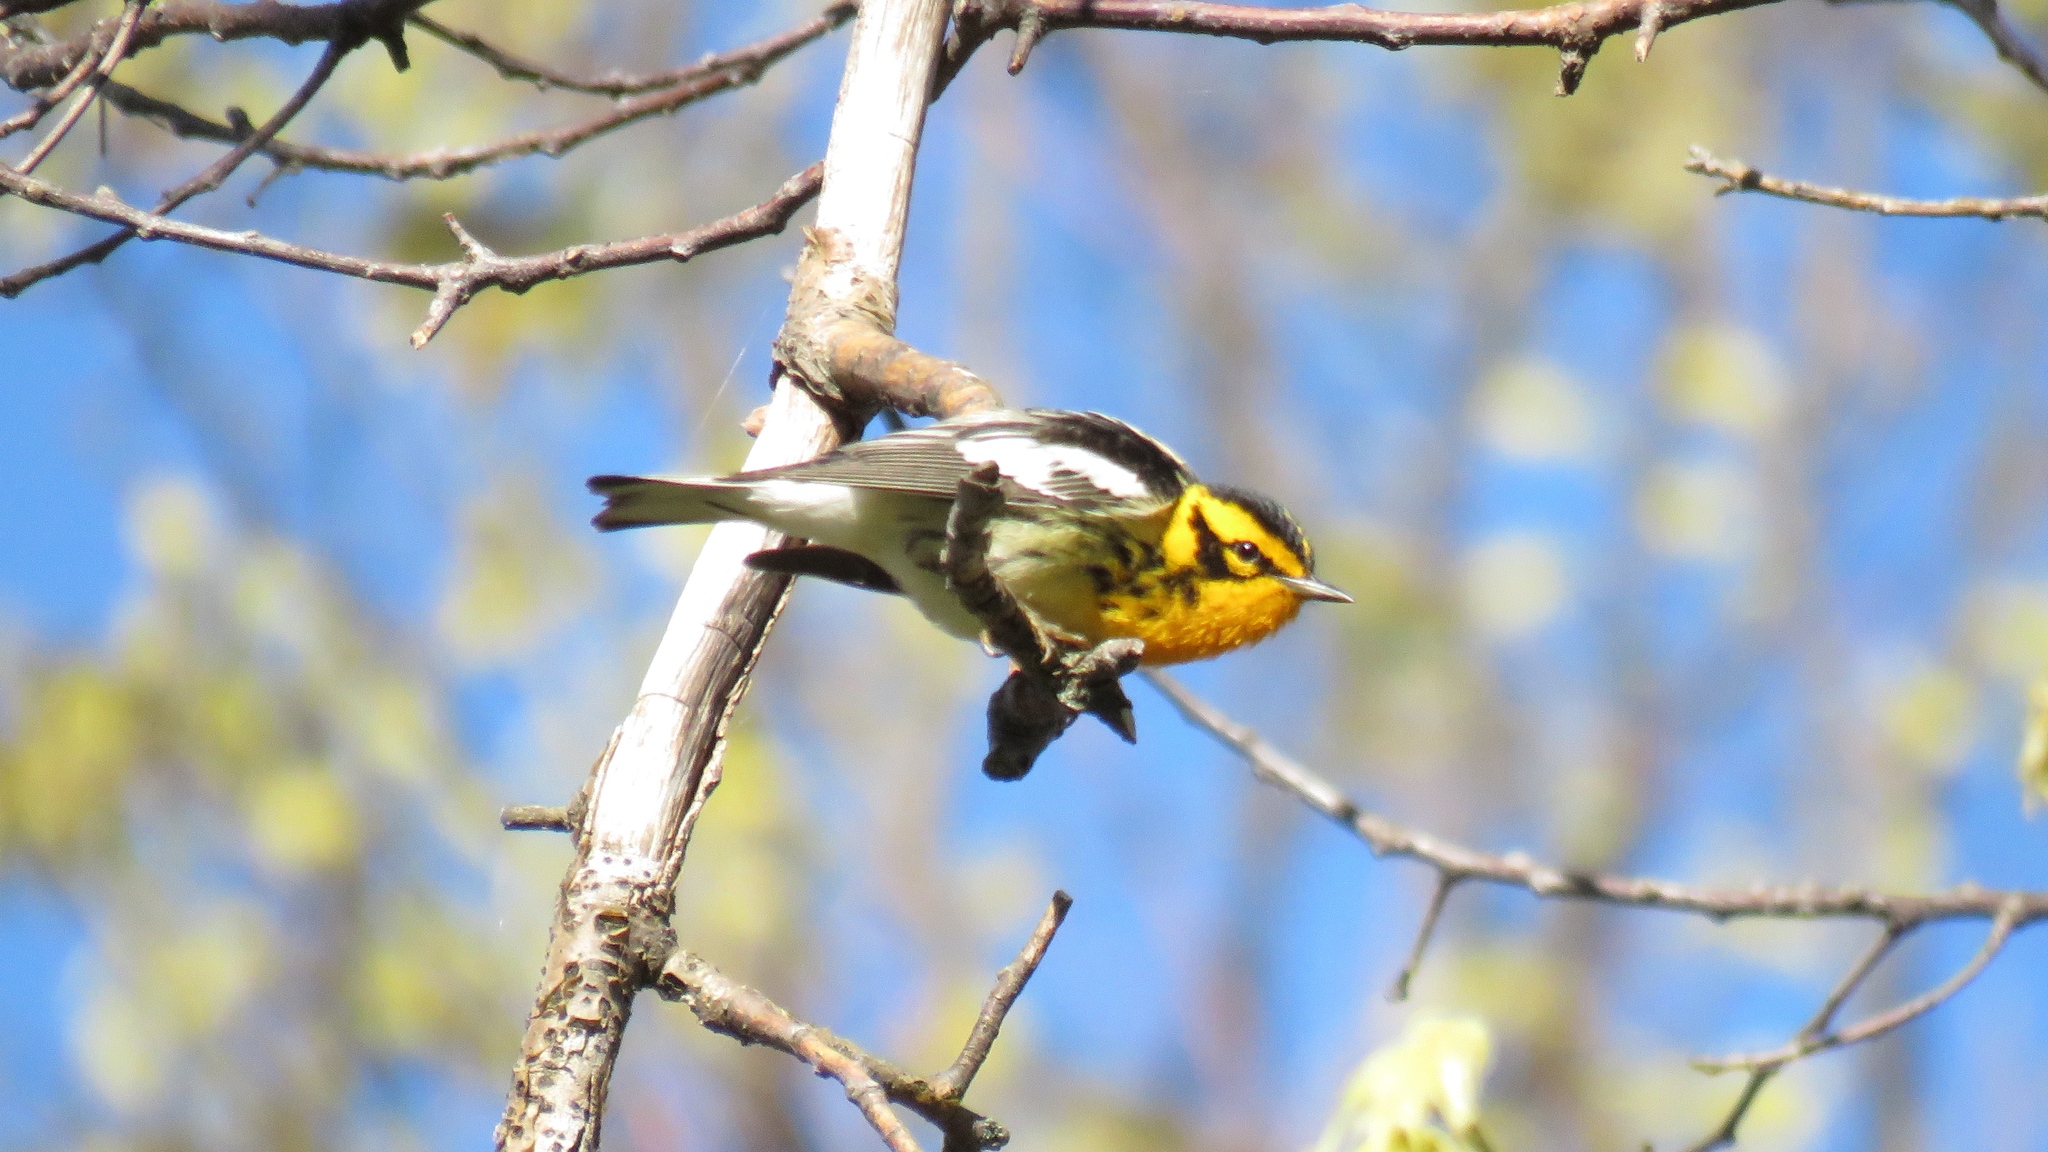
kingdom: Animalia
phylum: Chordata
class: Aves
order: Passeriformes
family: Parulidae
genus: Setophaga
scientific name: Setophaga fusca
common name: Blackburnian warbler
